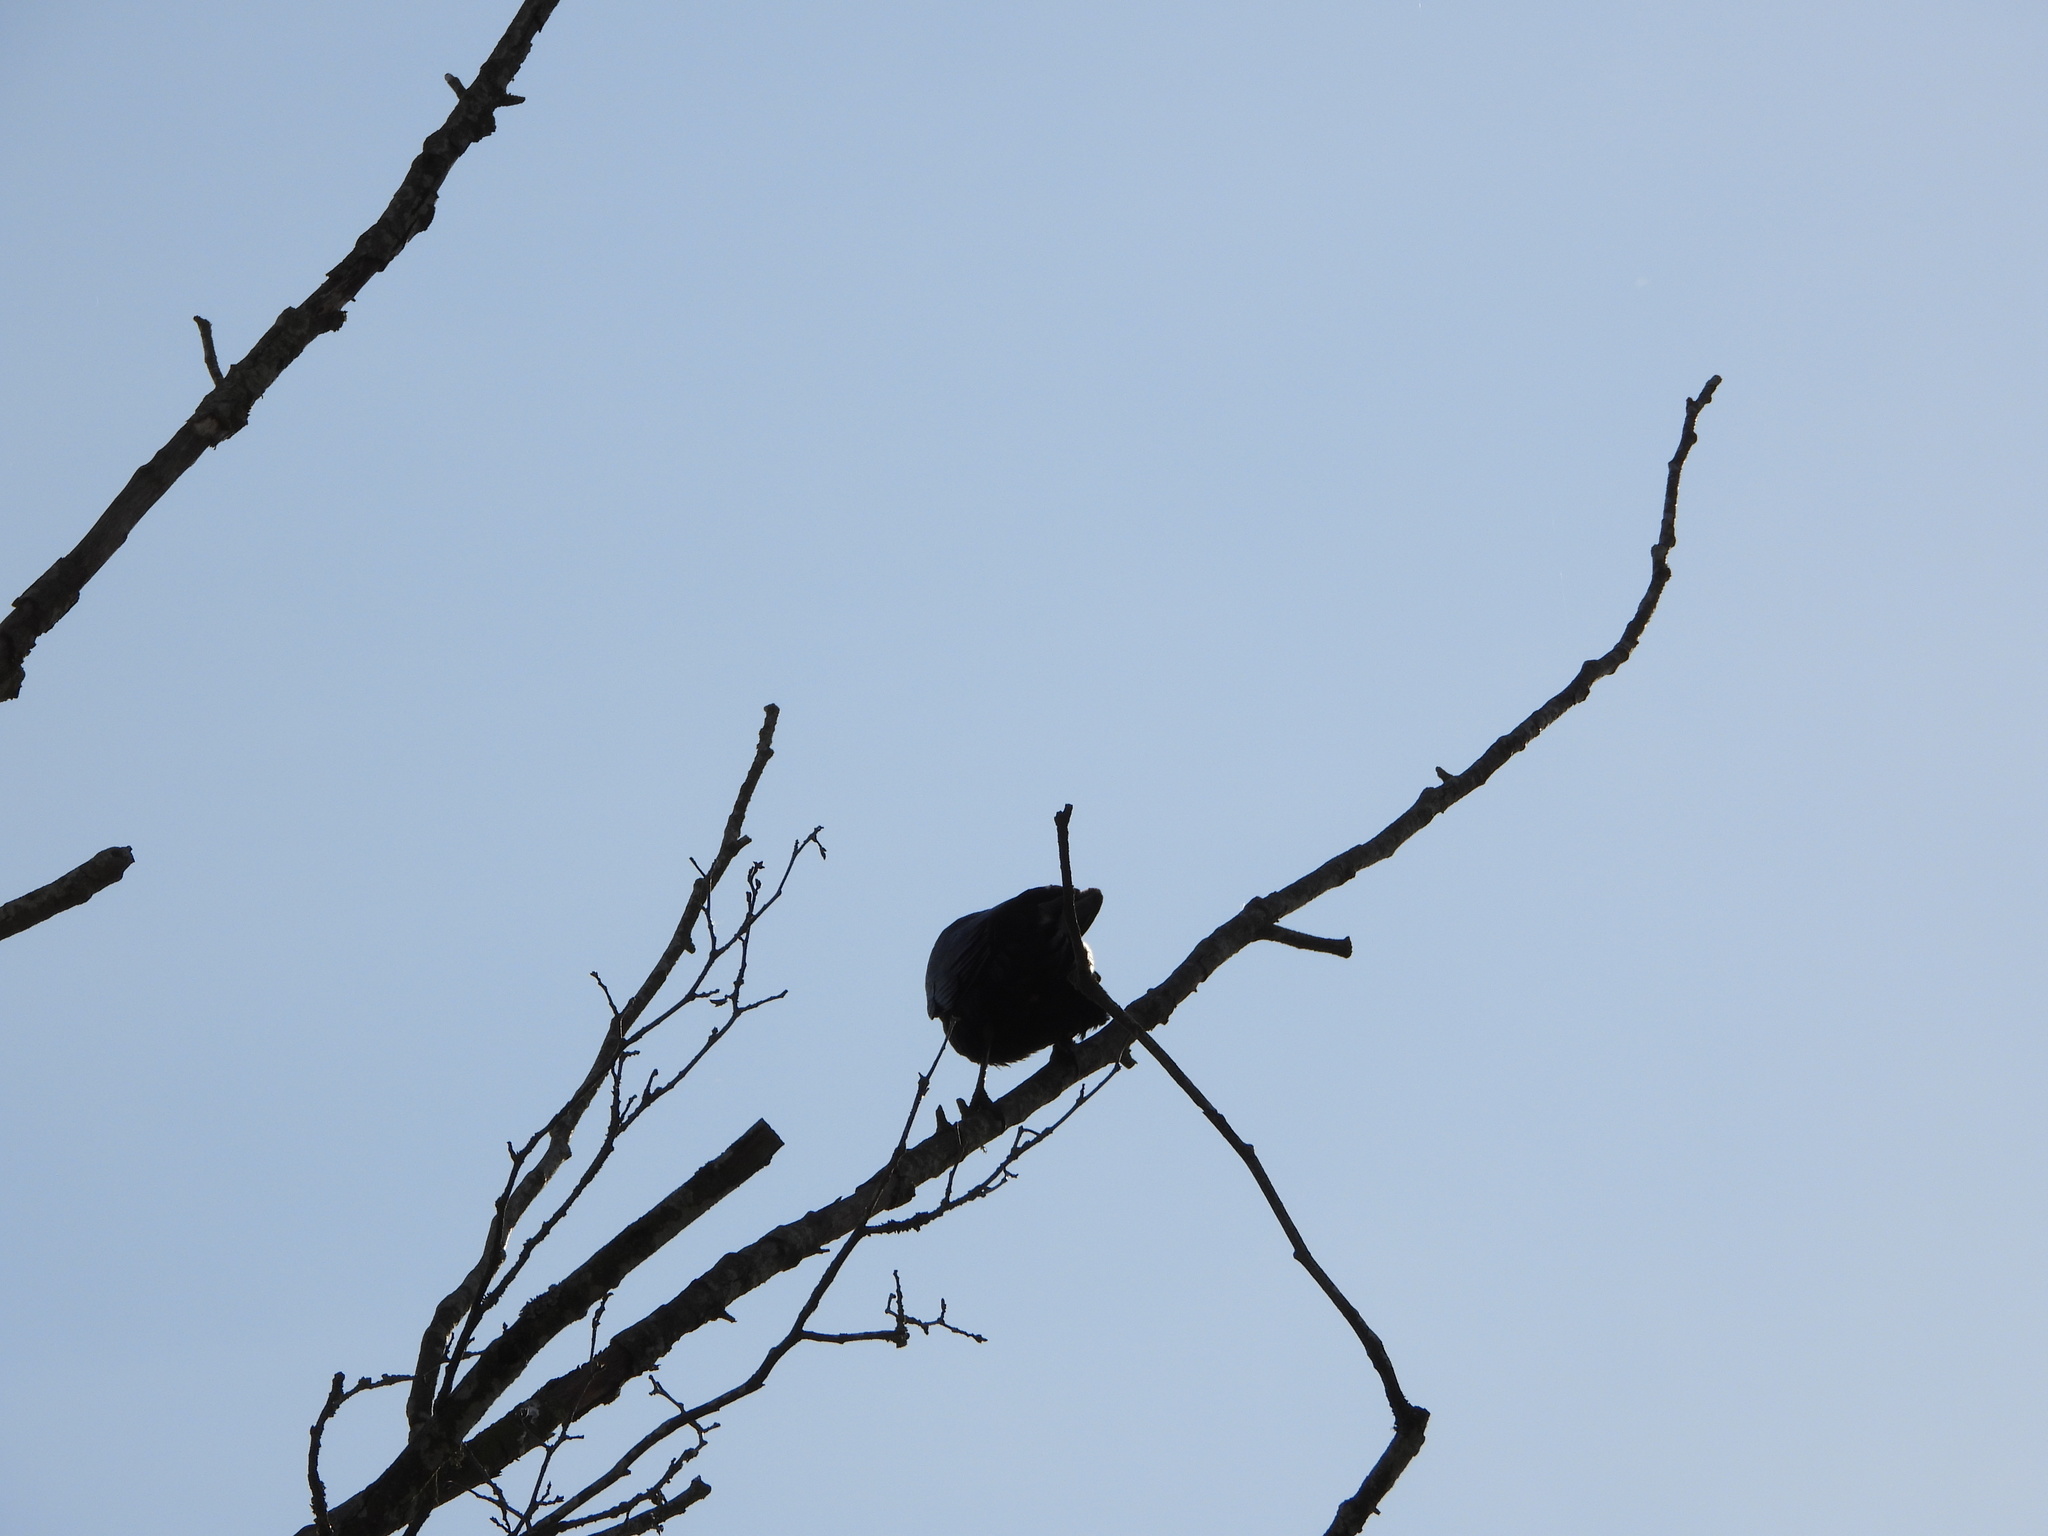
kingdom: Animalia
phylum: Chordata
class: Aves
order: Passeriformes
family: Corvidae
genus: Corvus
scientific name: Corvus brachyrhynchos
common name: American crow
